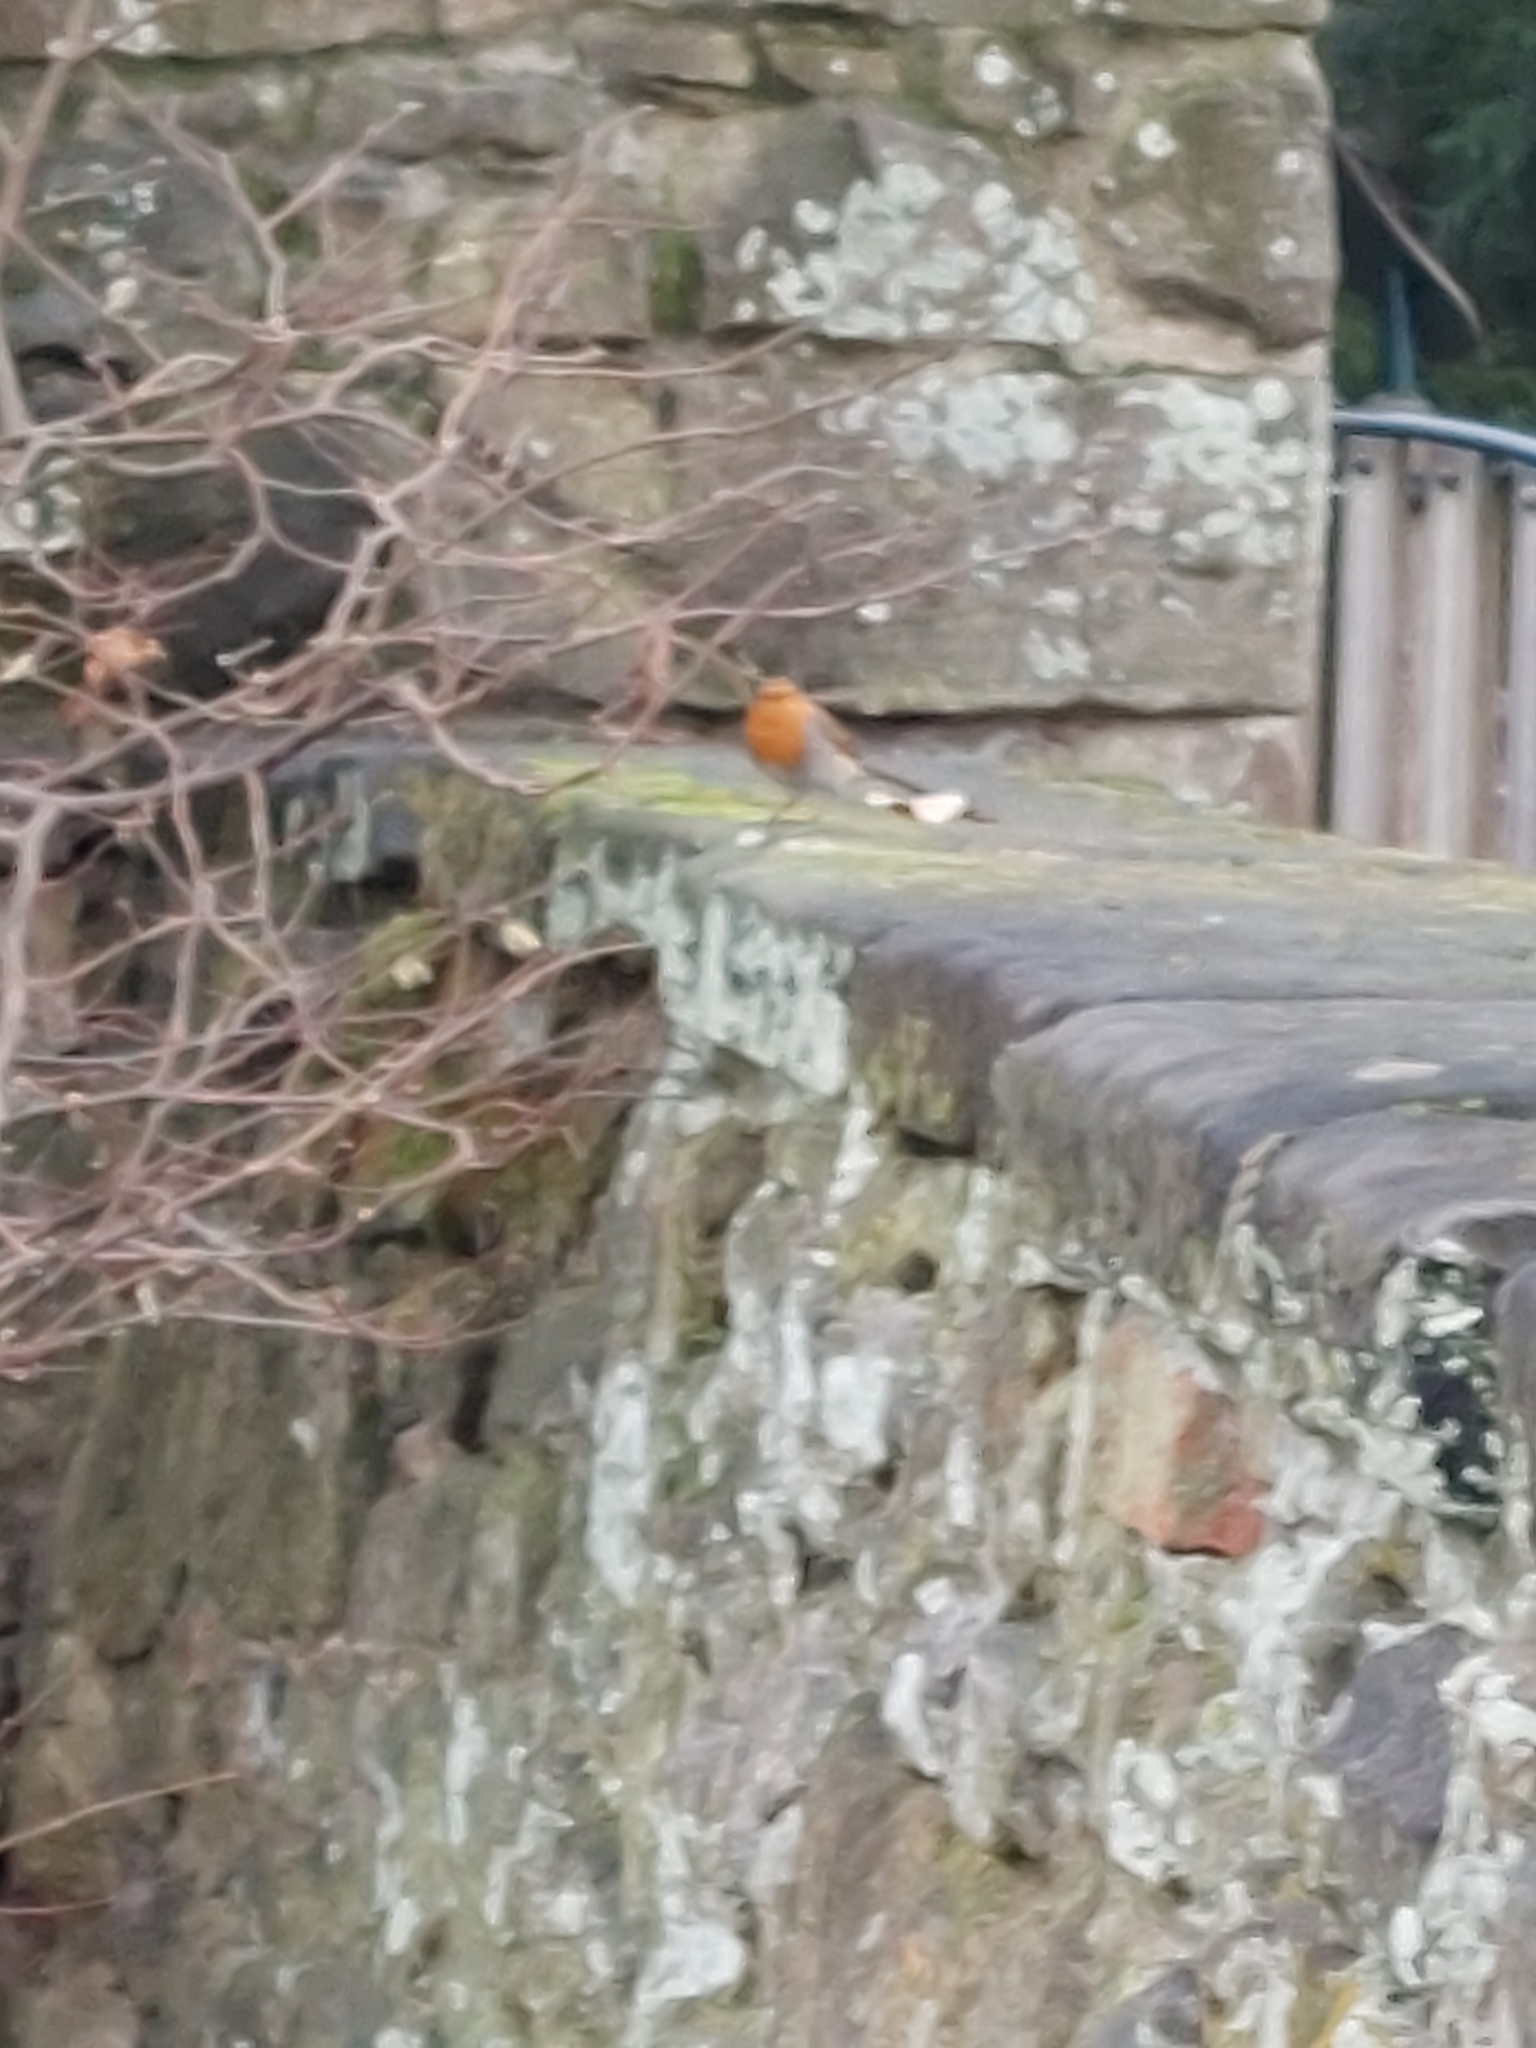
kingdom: Animalia
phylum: Chordata
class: Aves
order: Passeriformes
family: Muscicapidae
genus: Erithacus
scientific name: Erithacus rubecula
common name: European robin
